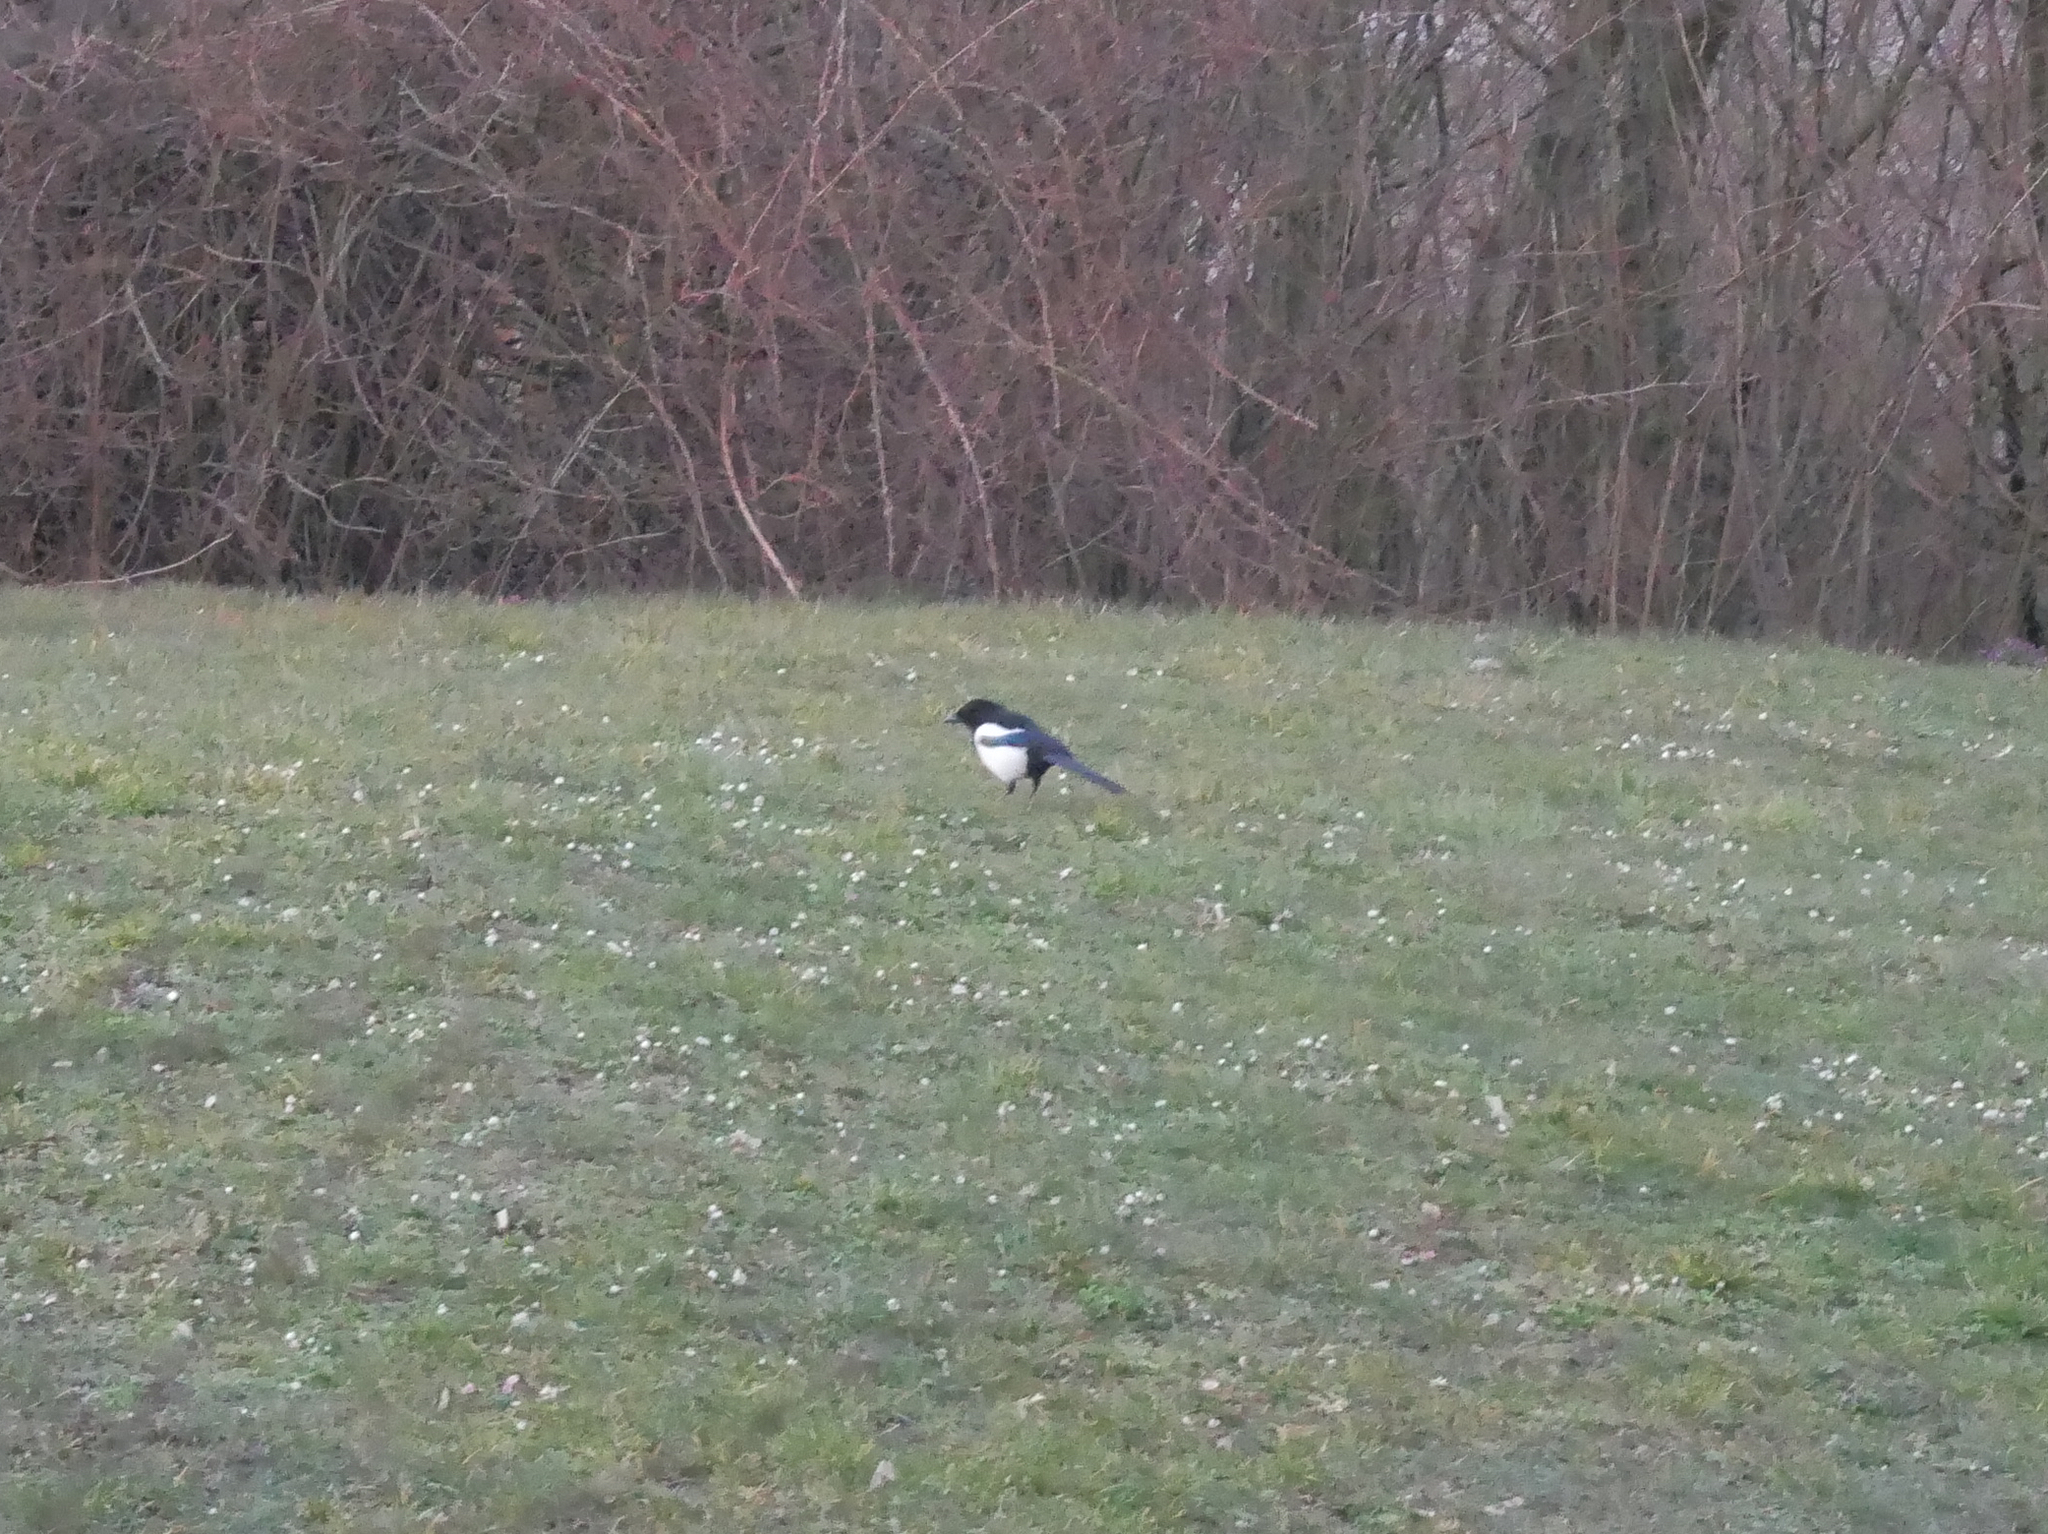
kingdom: Animalia
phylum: Chordata
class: Aves
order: Passeriformes
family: Corvidae
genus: Pica
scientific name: Pica pica
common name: Eurasian magpie
